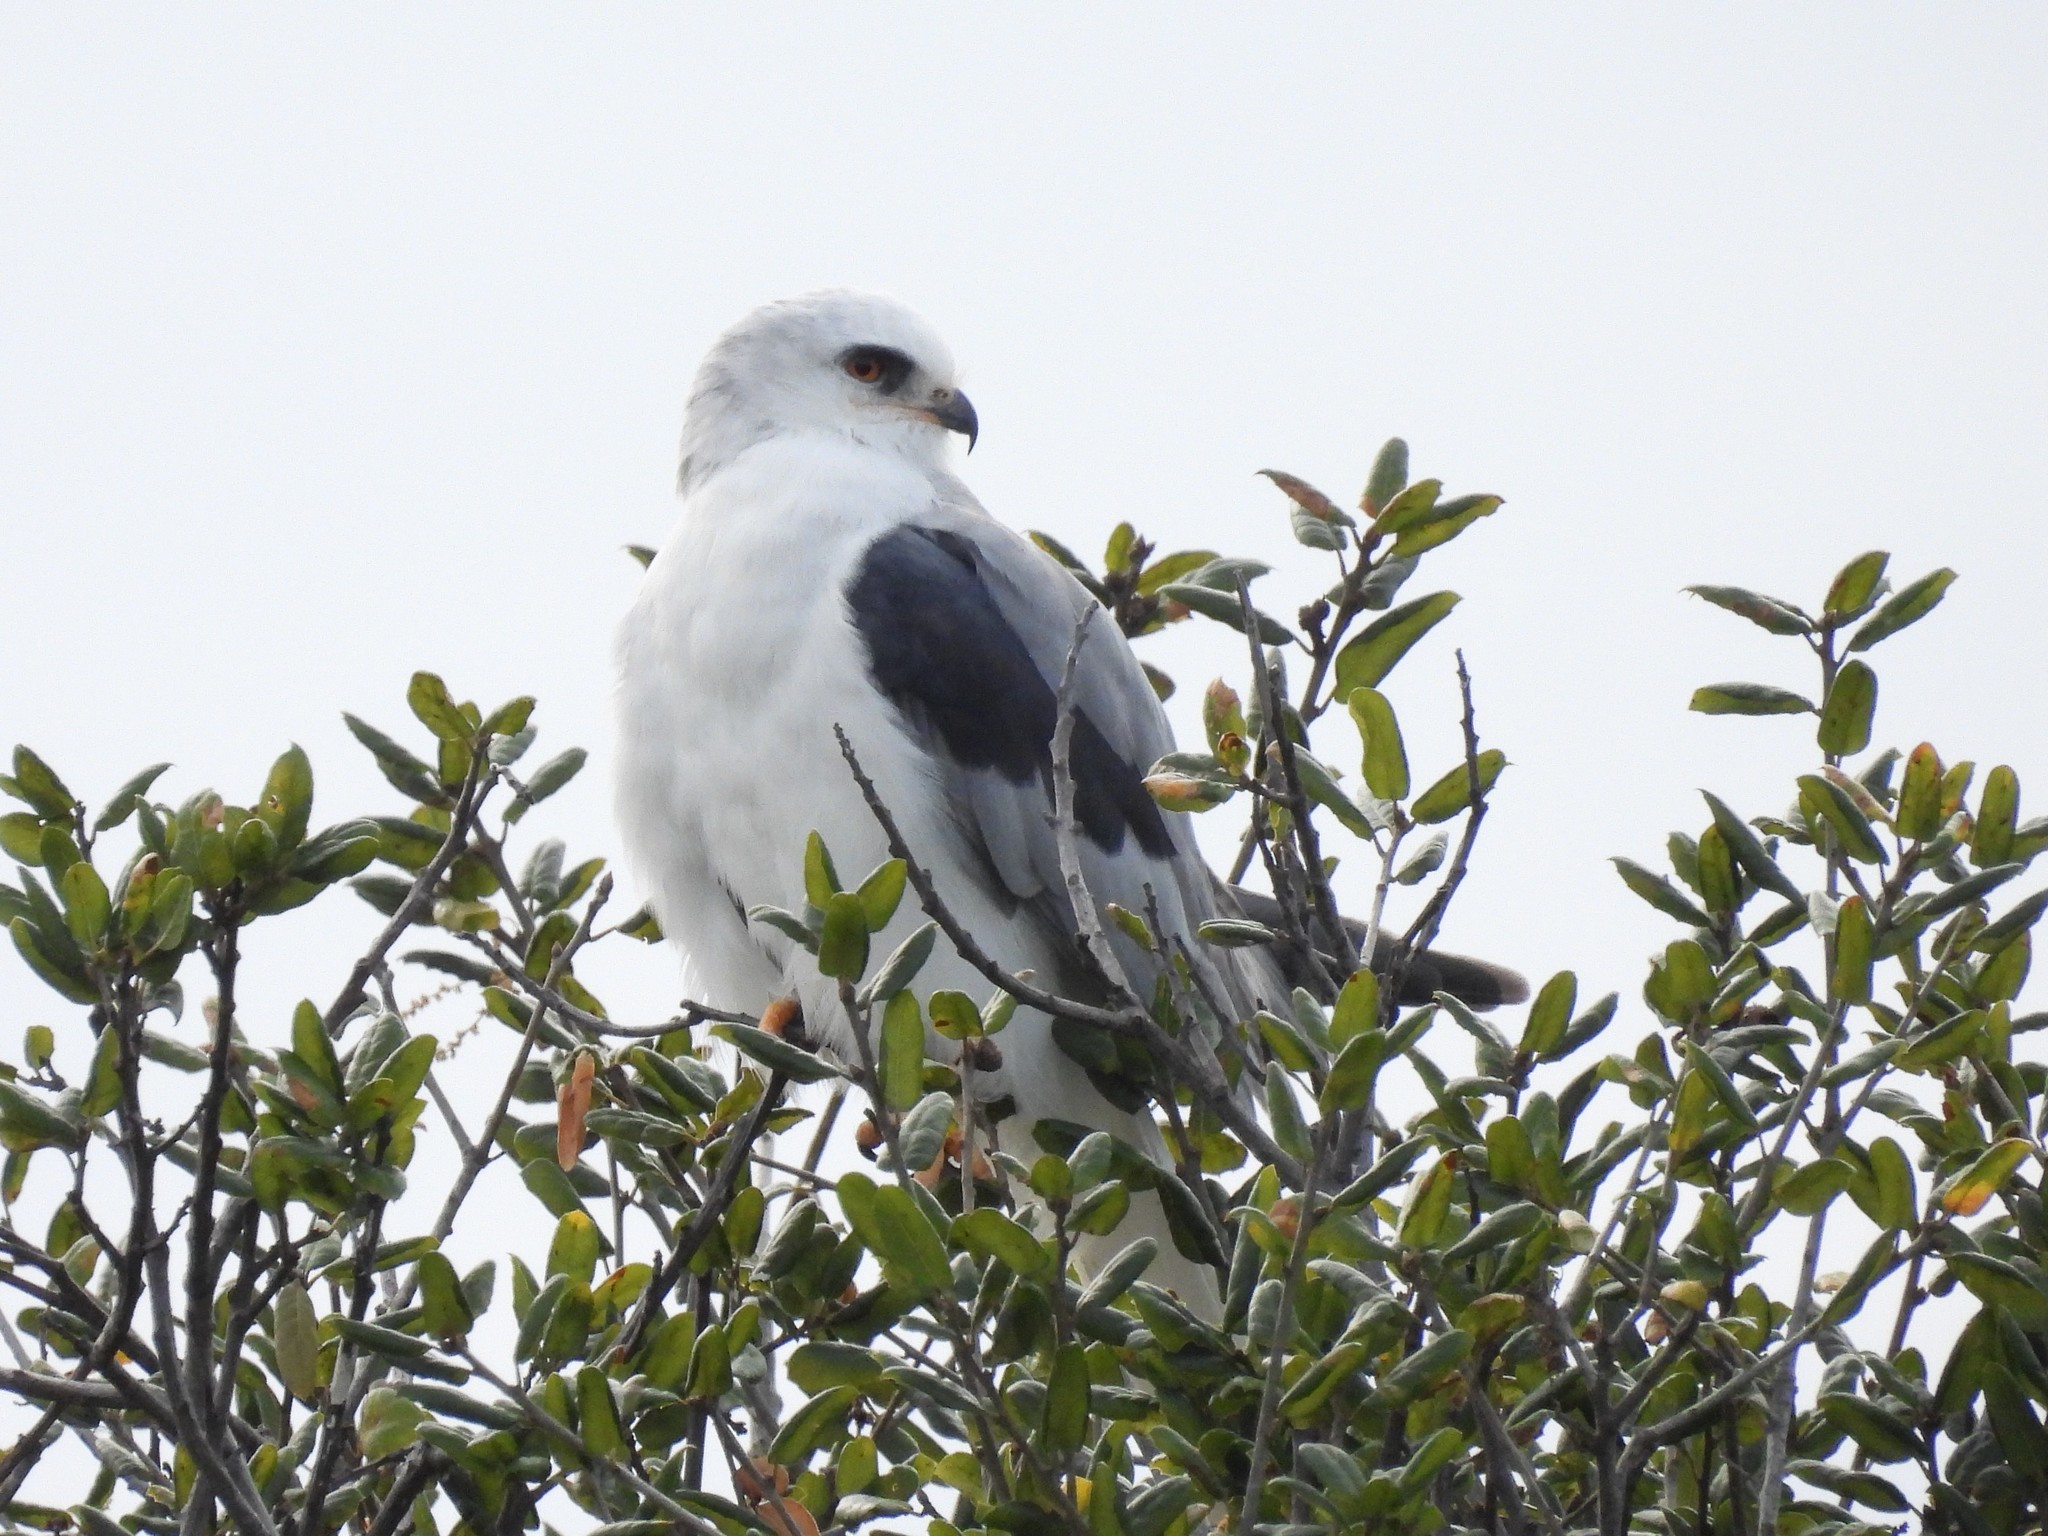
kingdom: Animalia
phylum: Chordata
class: Aves
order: Accipitriformes
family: Accipitridae
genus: Elanus
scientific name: Elanus leucurus
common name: White-tailed kite
